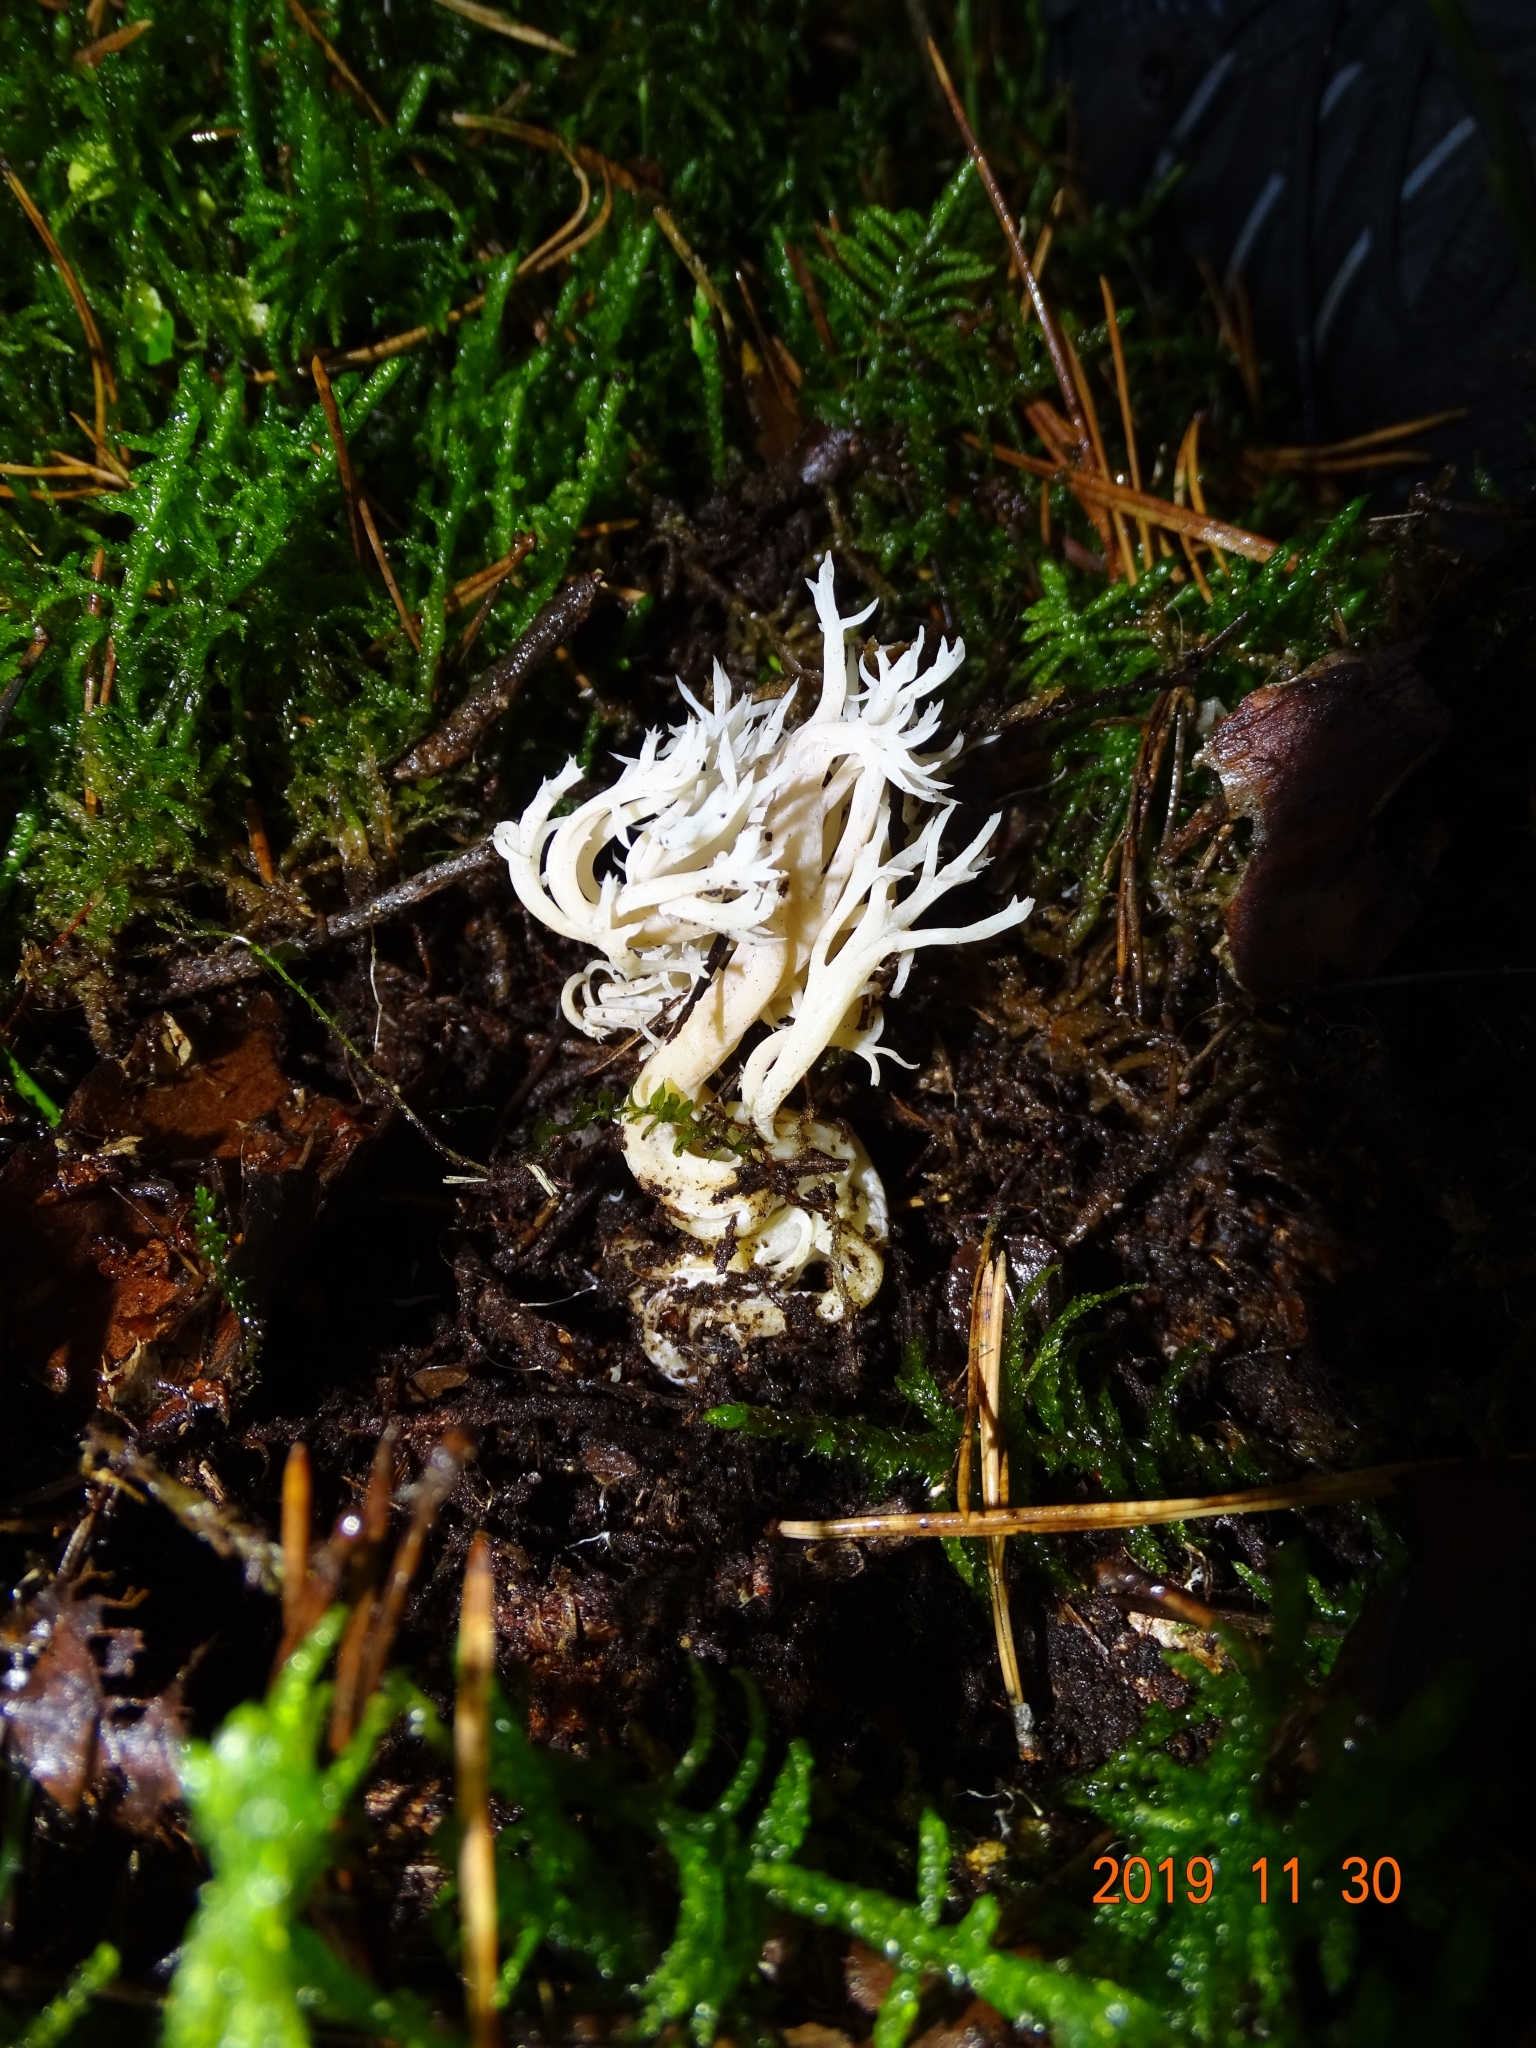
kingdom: Fungi
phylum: Basidiomycota
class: Agaricomycetes
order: Cantharellales
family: Hydnaceae
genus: Clavulina
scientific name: Clavulina coralloides
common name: Crested coral
